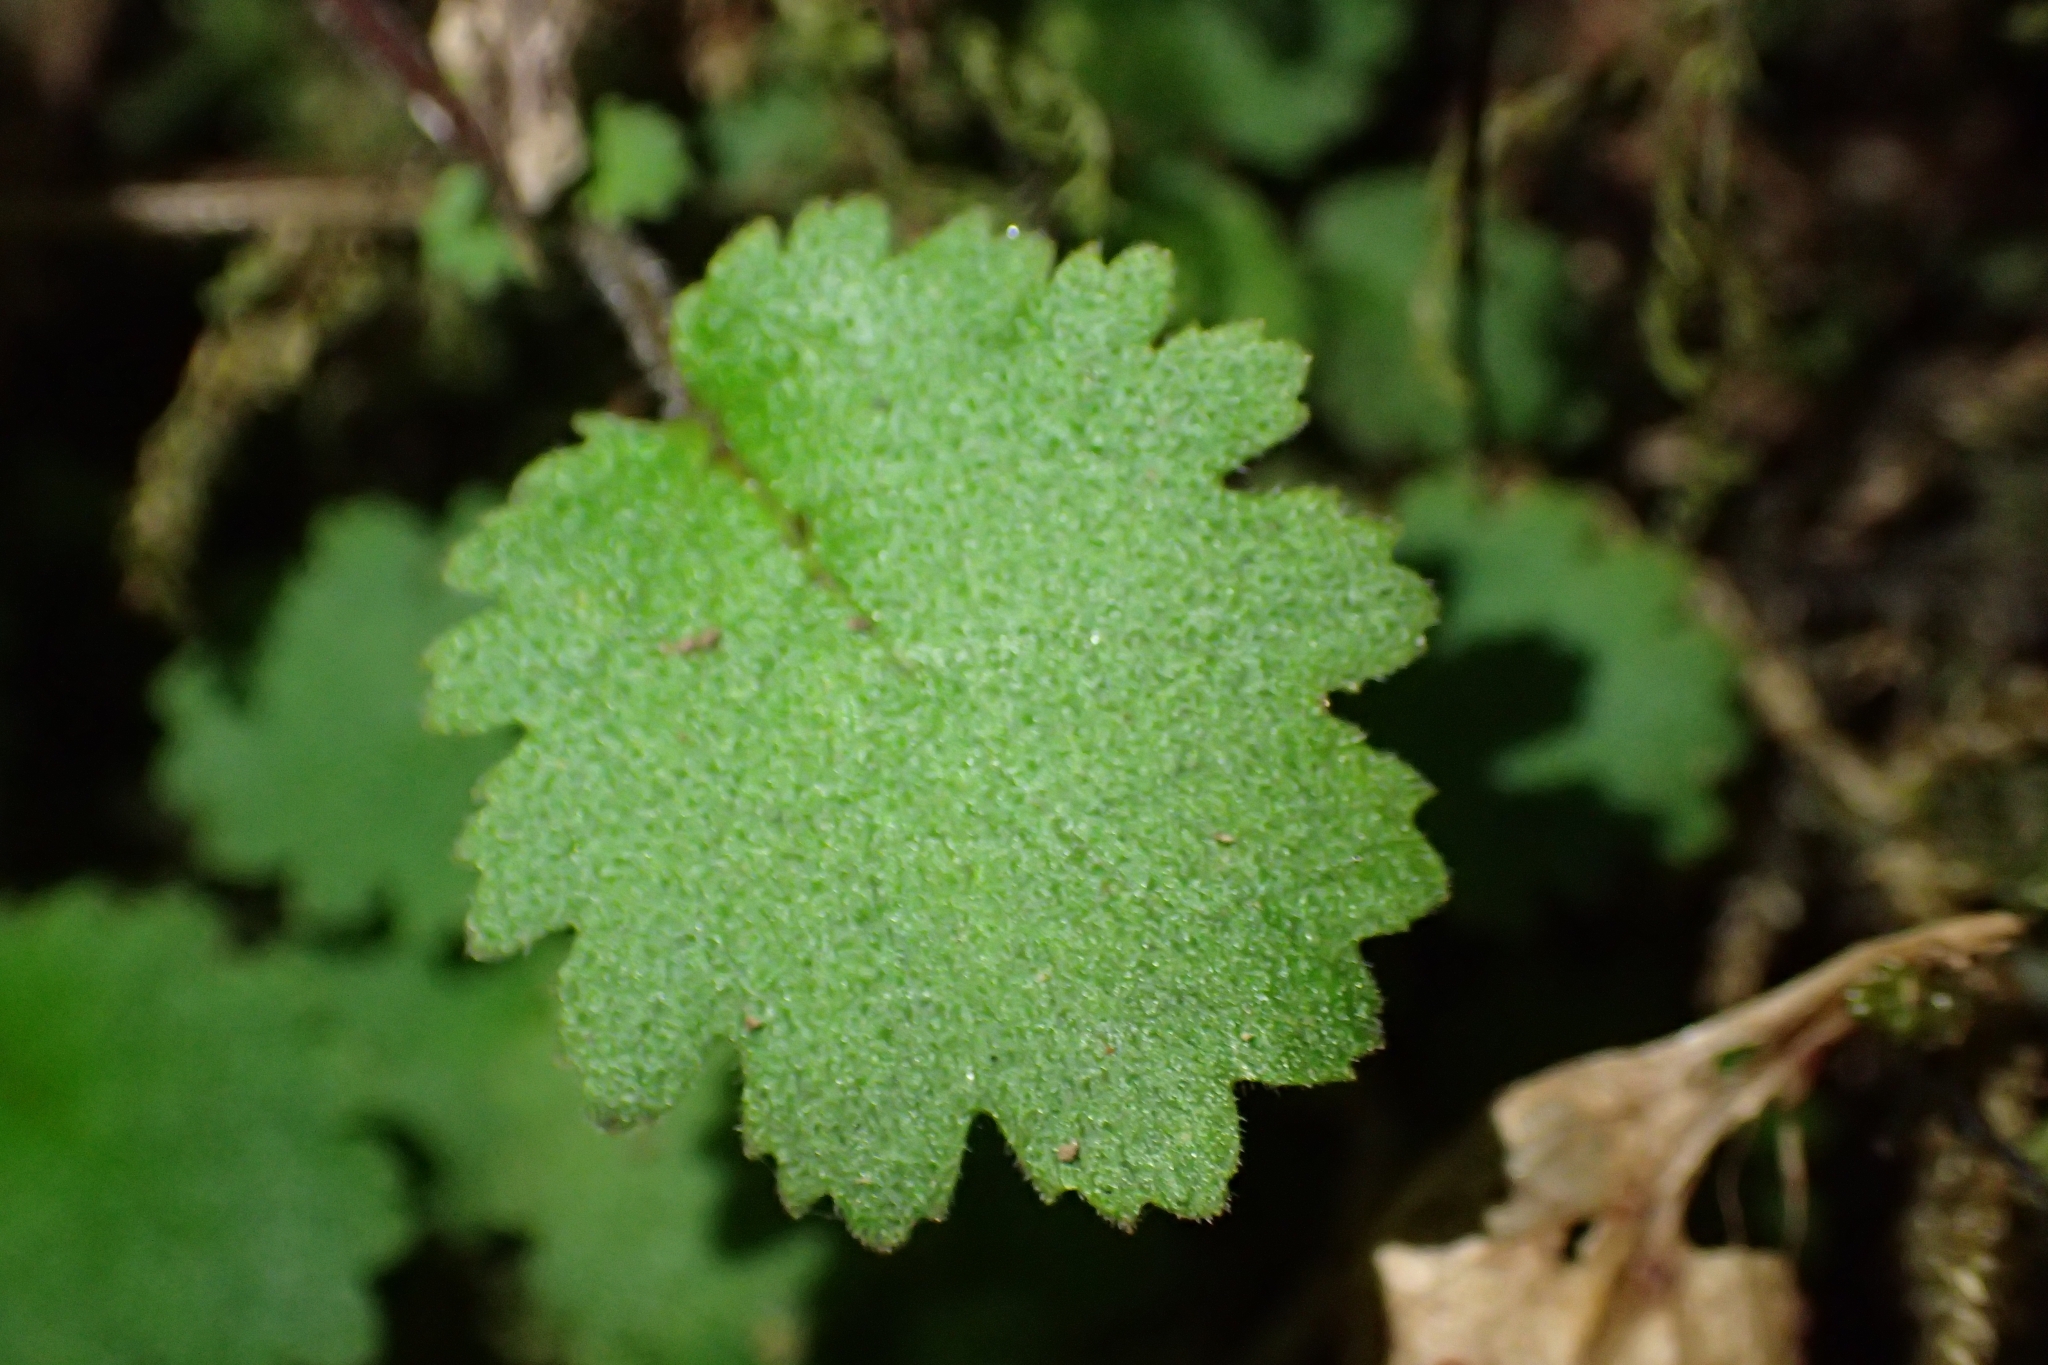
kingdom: Plantae
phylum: Tracheophyta
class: Magnoliopsida
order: Lamiales
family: Calceolariaceae
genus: Jovellana
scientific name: Jovellana repens
